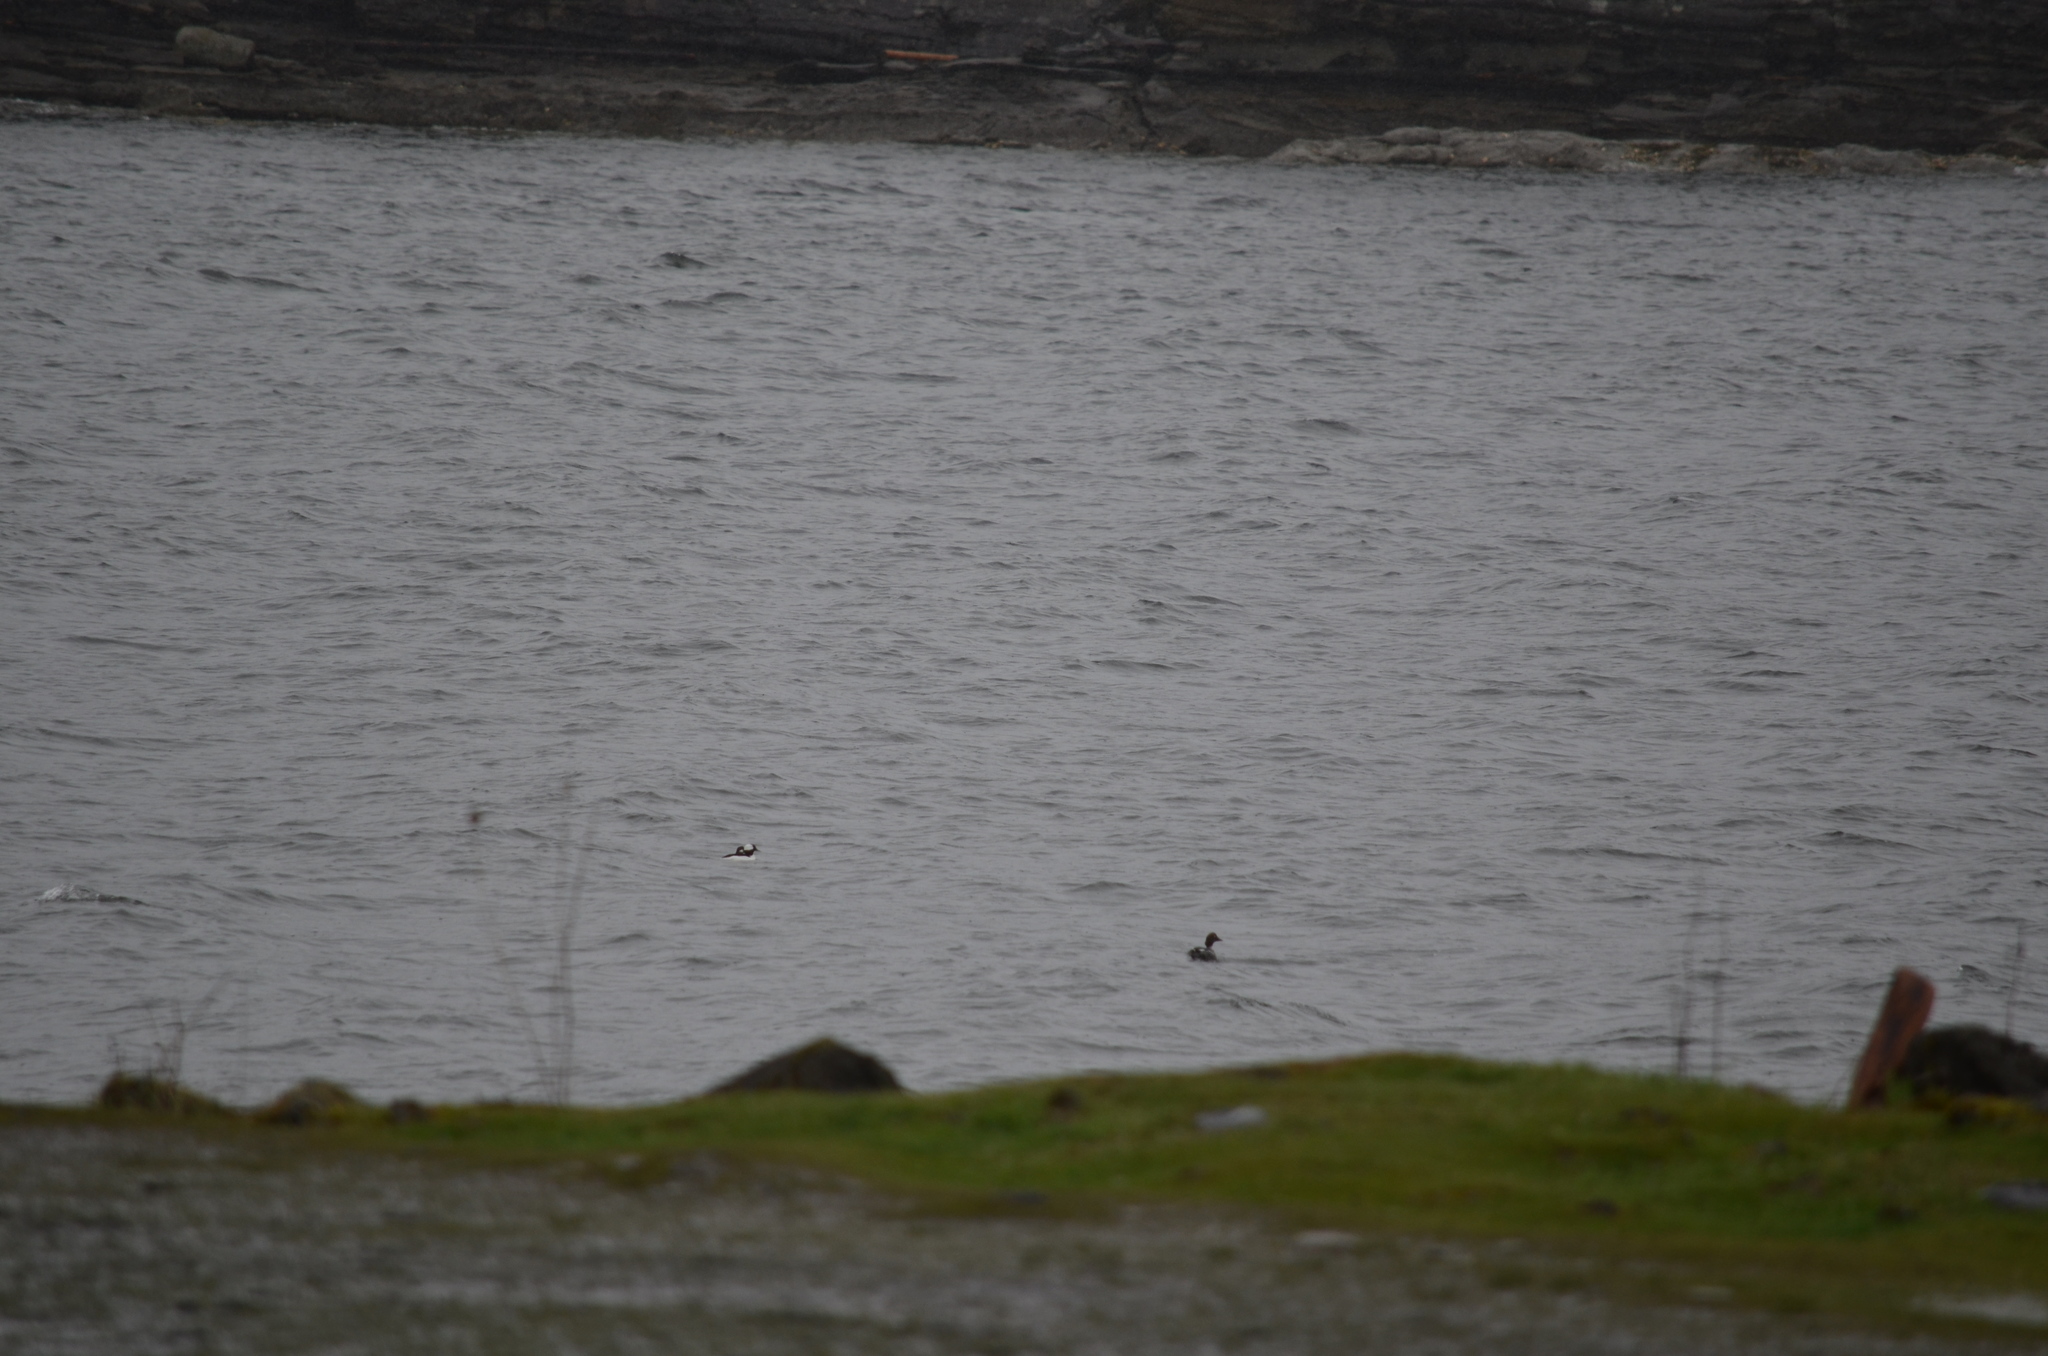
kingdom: Animalia
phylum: Chordata
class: Aves
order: Anseriformes
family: Anatidae
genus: Bucephala
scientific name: Bucephala albeola
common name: Bufflehead
